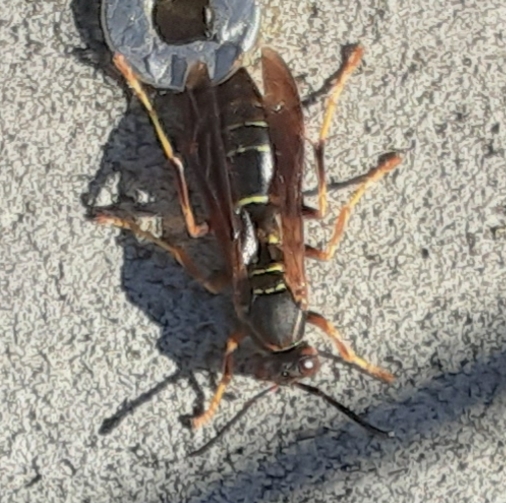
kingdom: Animalia
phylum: Arthropoda
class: Insecta
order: Hymenoptera
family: Eumenidae
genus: Polistes
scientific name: Polistes fuscatus
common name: Dark paper wasp
